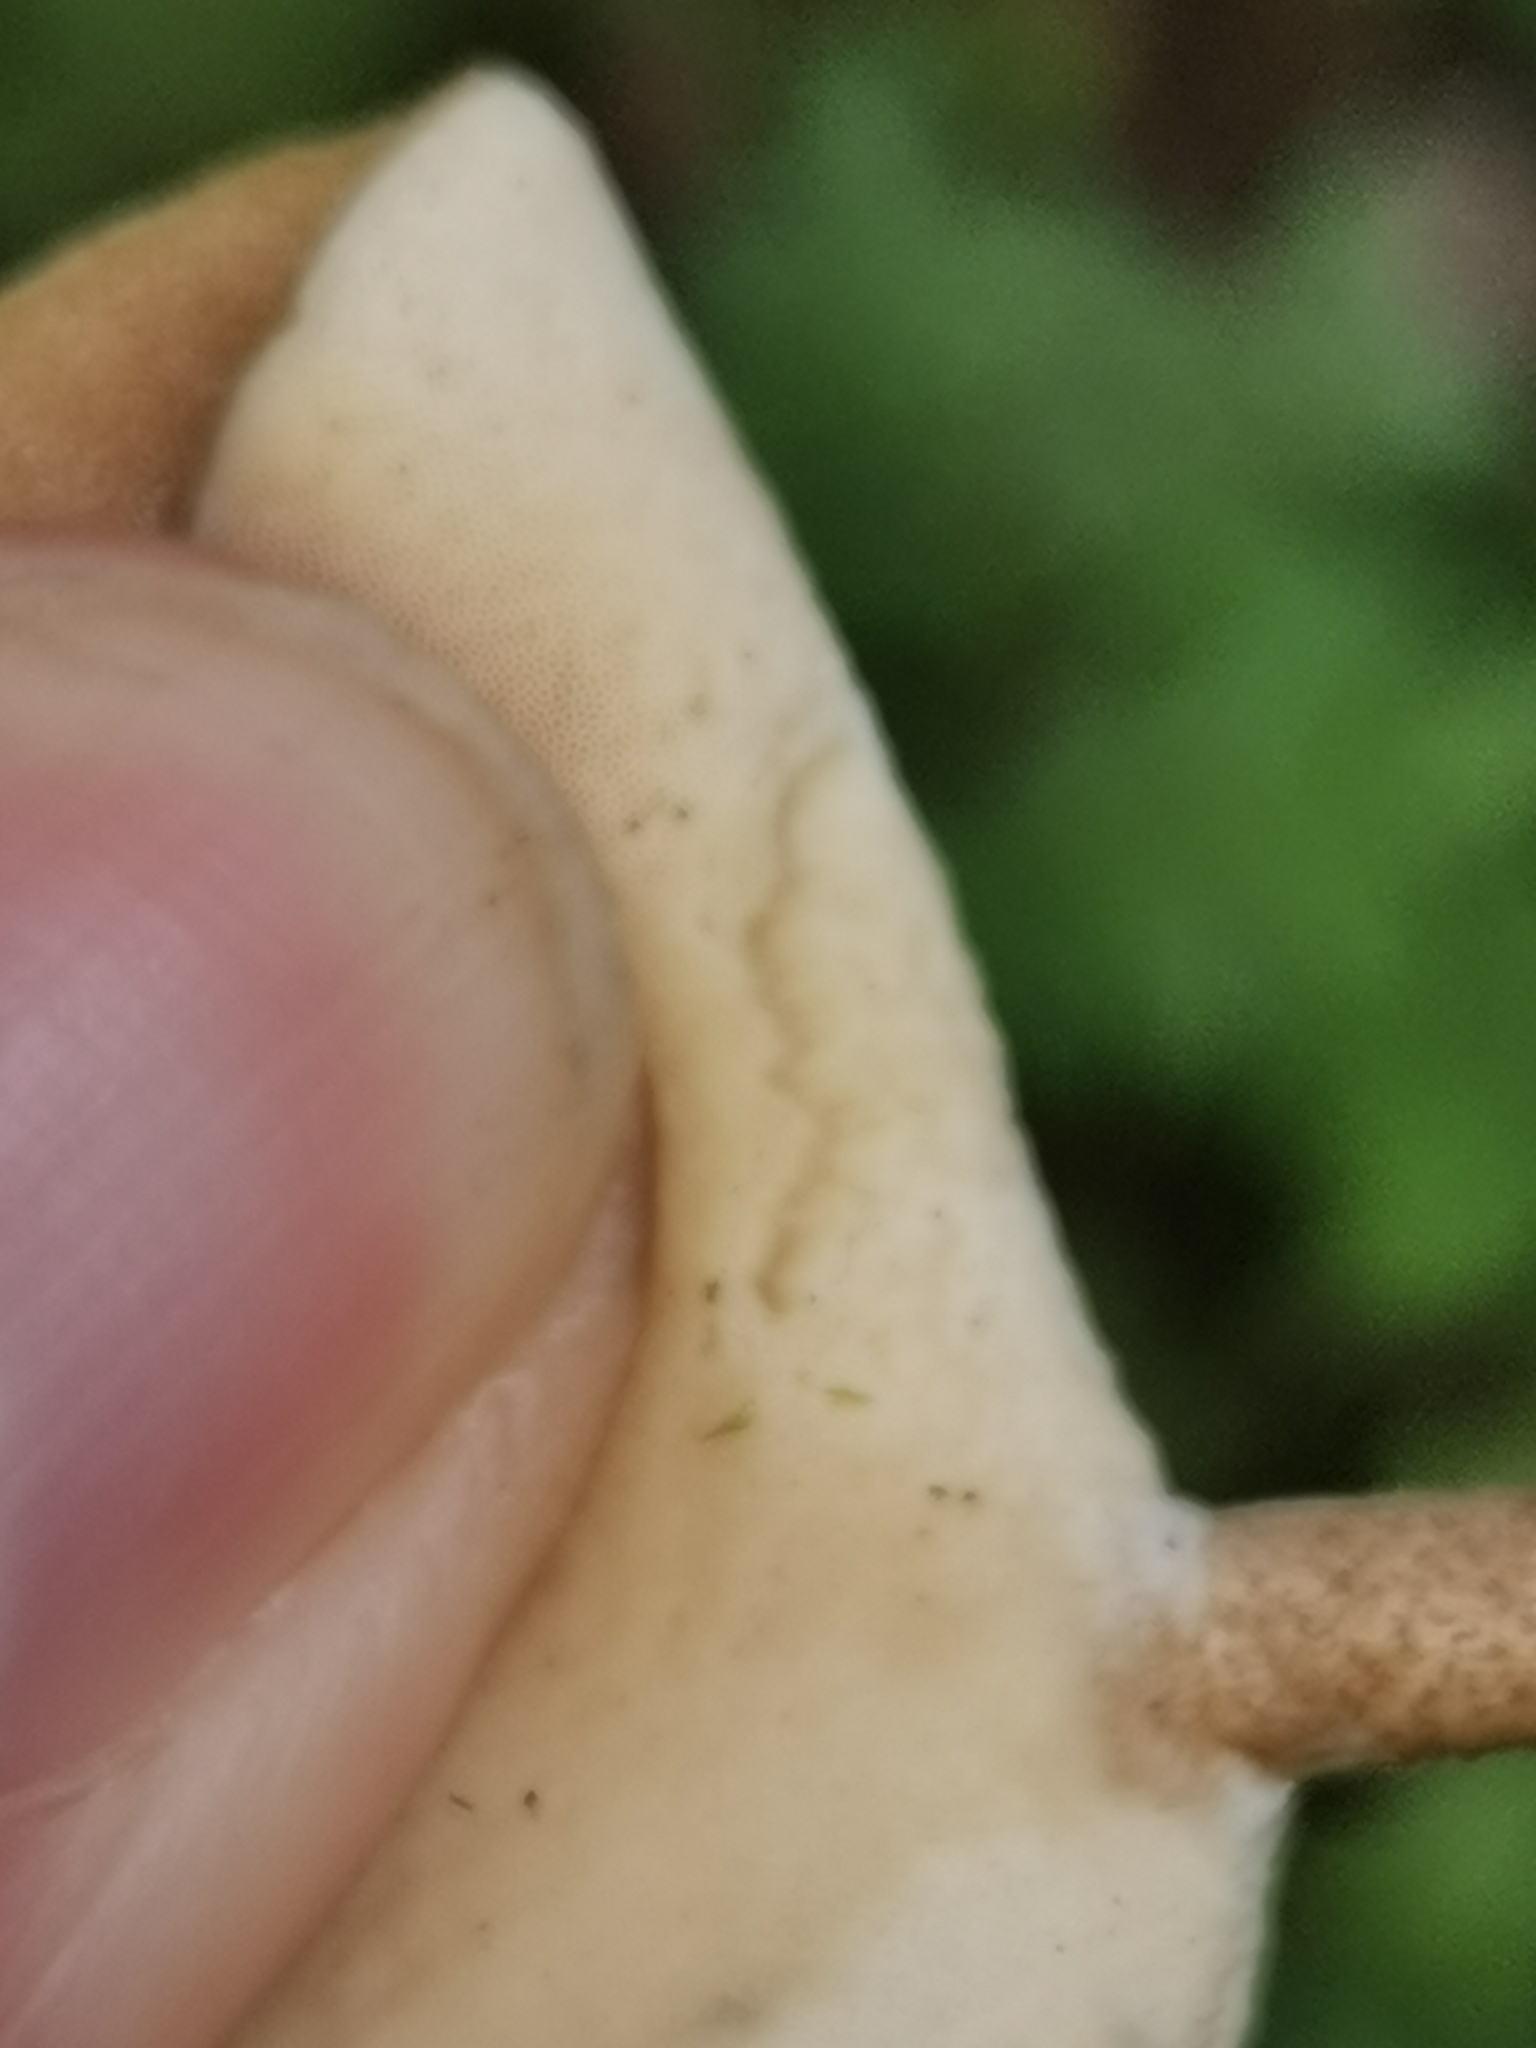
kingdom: Fungi
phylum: Basidiomycota
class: Agaricomycetes
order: Polyporales
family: Polyporaceae
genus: Lentinus
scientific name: Lentinus substrictus
